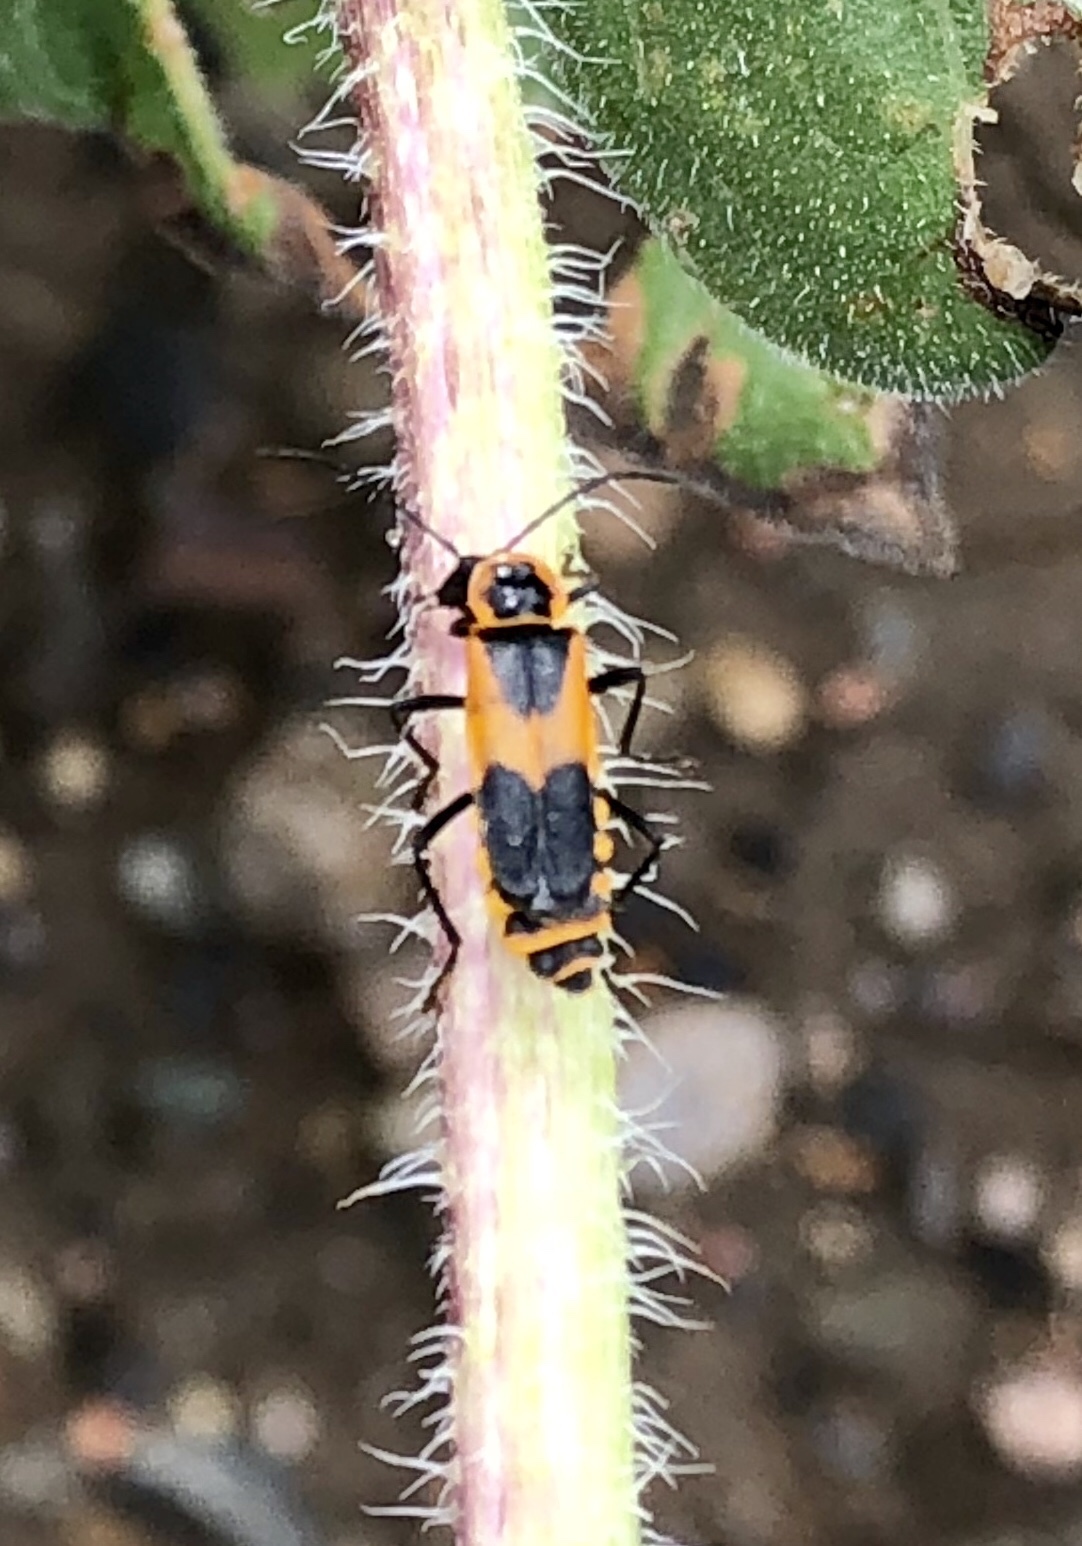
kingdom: Animalia
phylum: Arthropoda
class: Insecta
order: Coleoptera
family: Cantharidae
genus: Chauliognathus
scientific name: Chauliognathus
